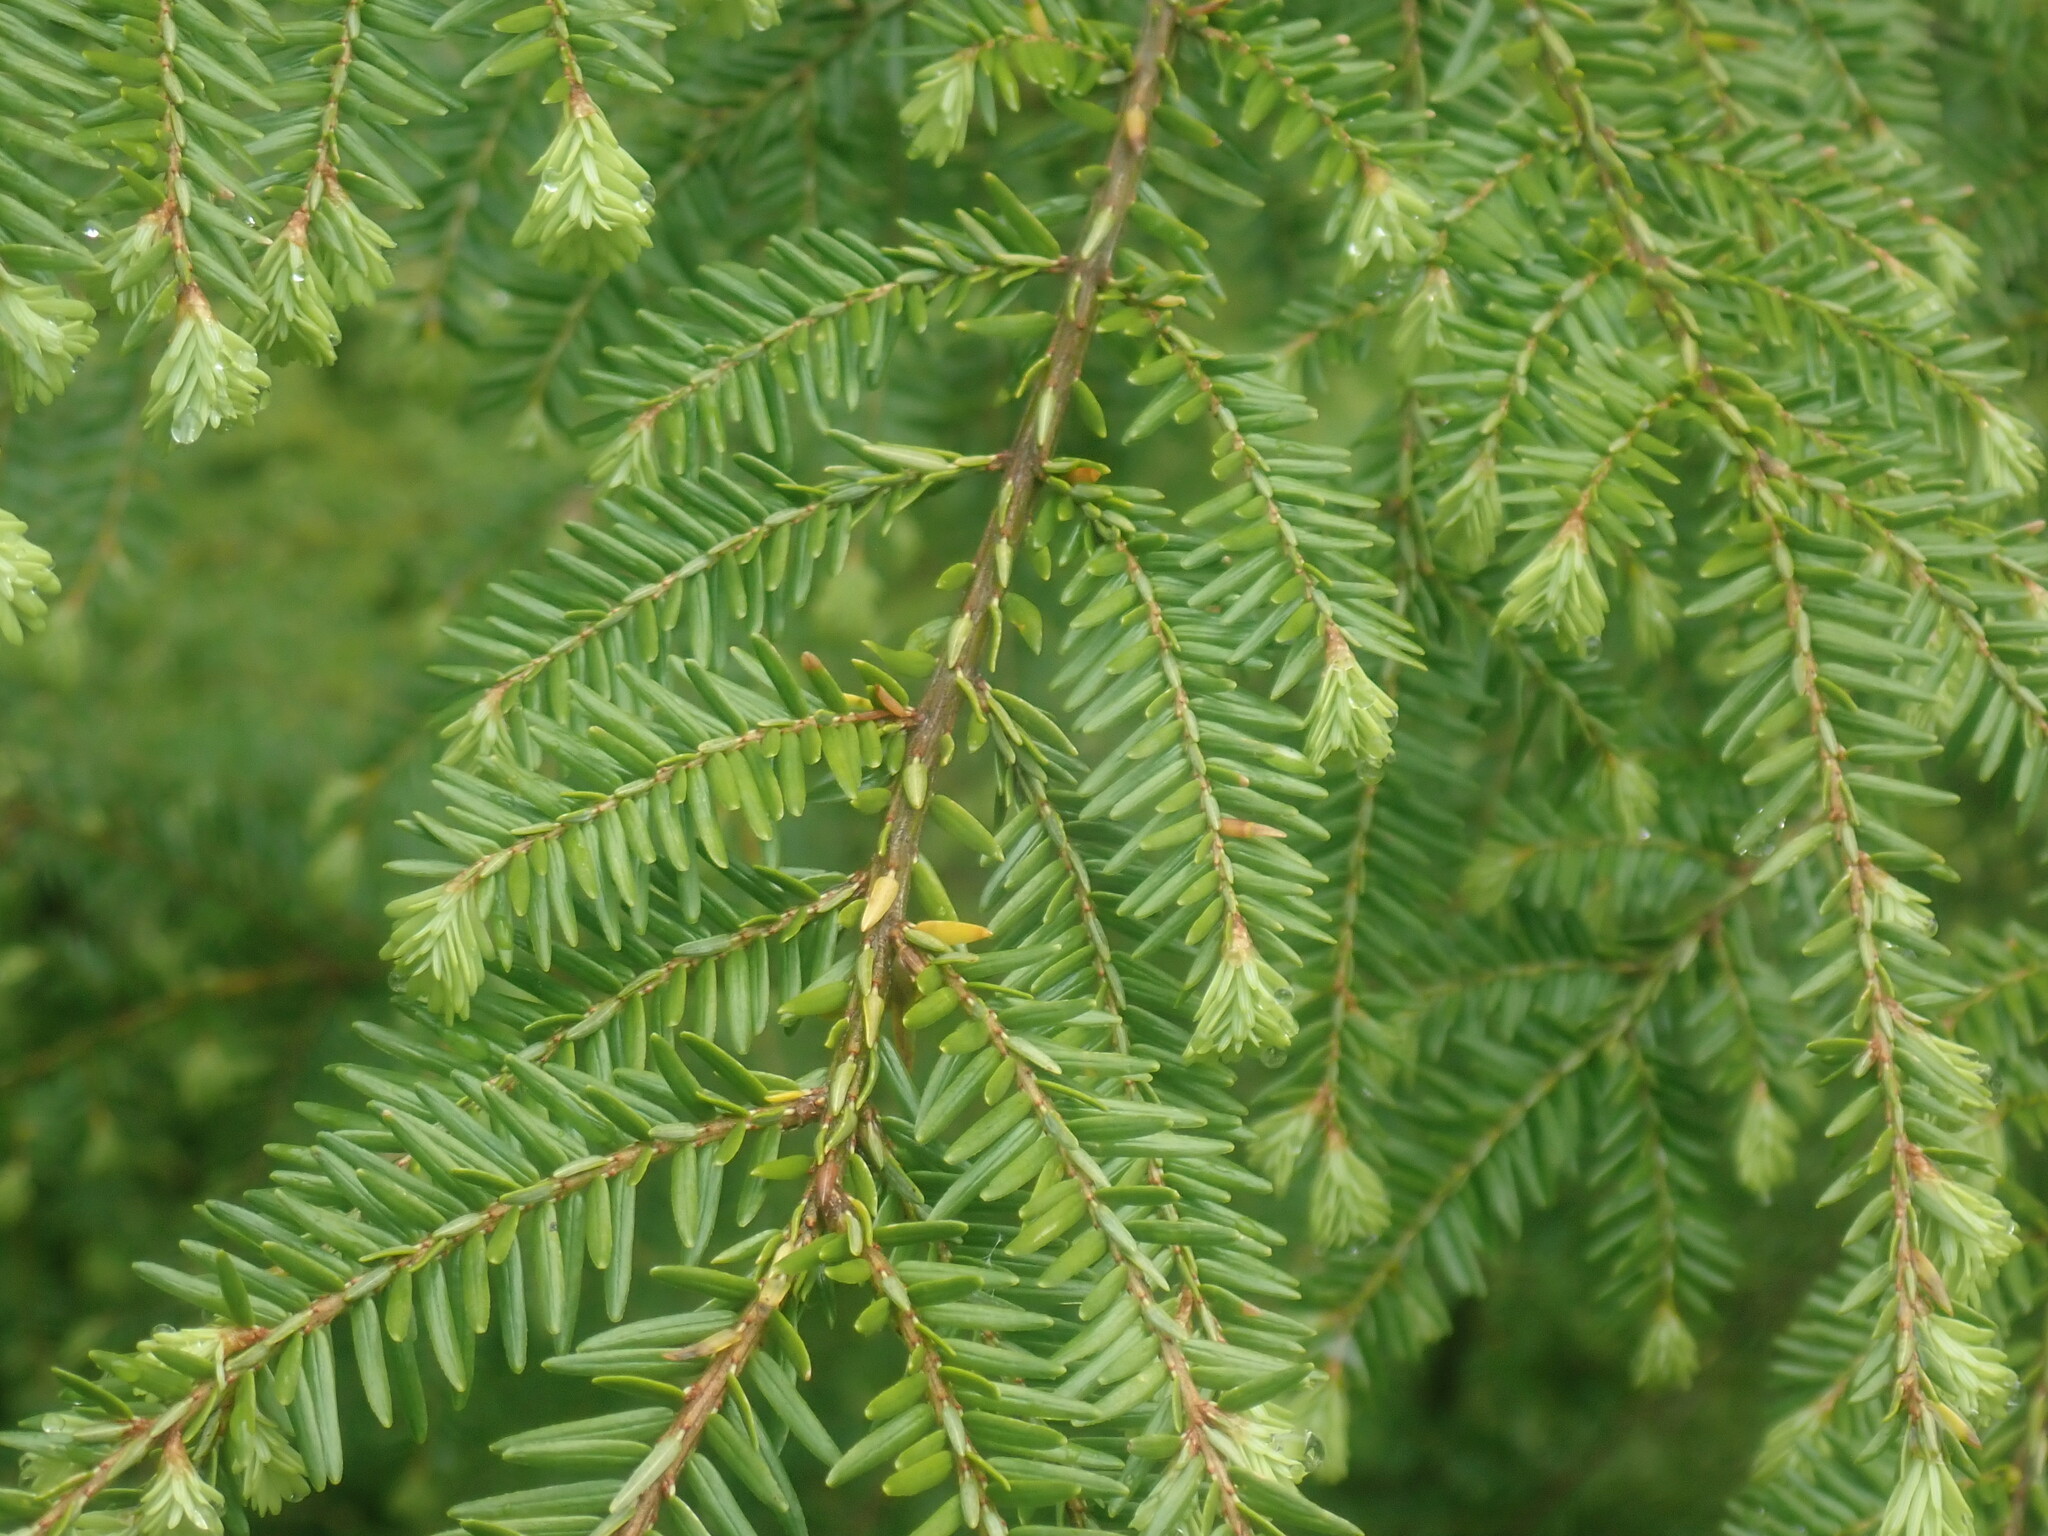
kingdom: Plantae
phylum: Tracheophyta
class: Pinopsida
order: Pinales
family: Pinaceae
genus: Tsuga
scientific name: Tsuga canadensis
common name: Eastern hemlock
